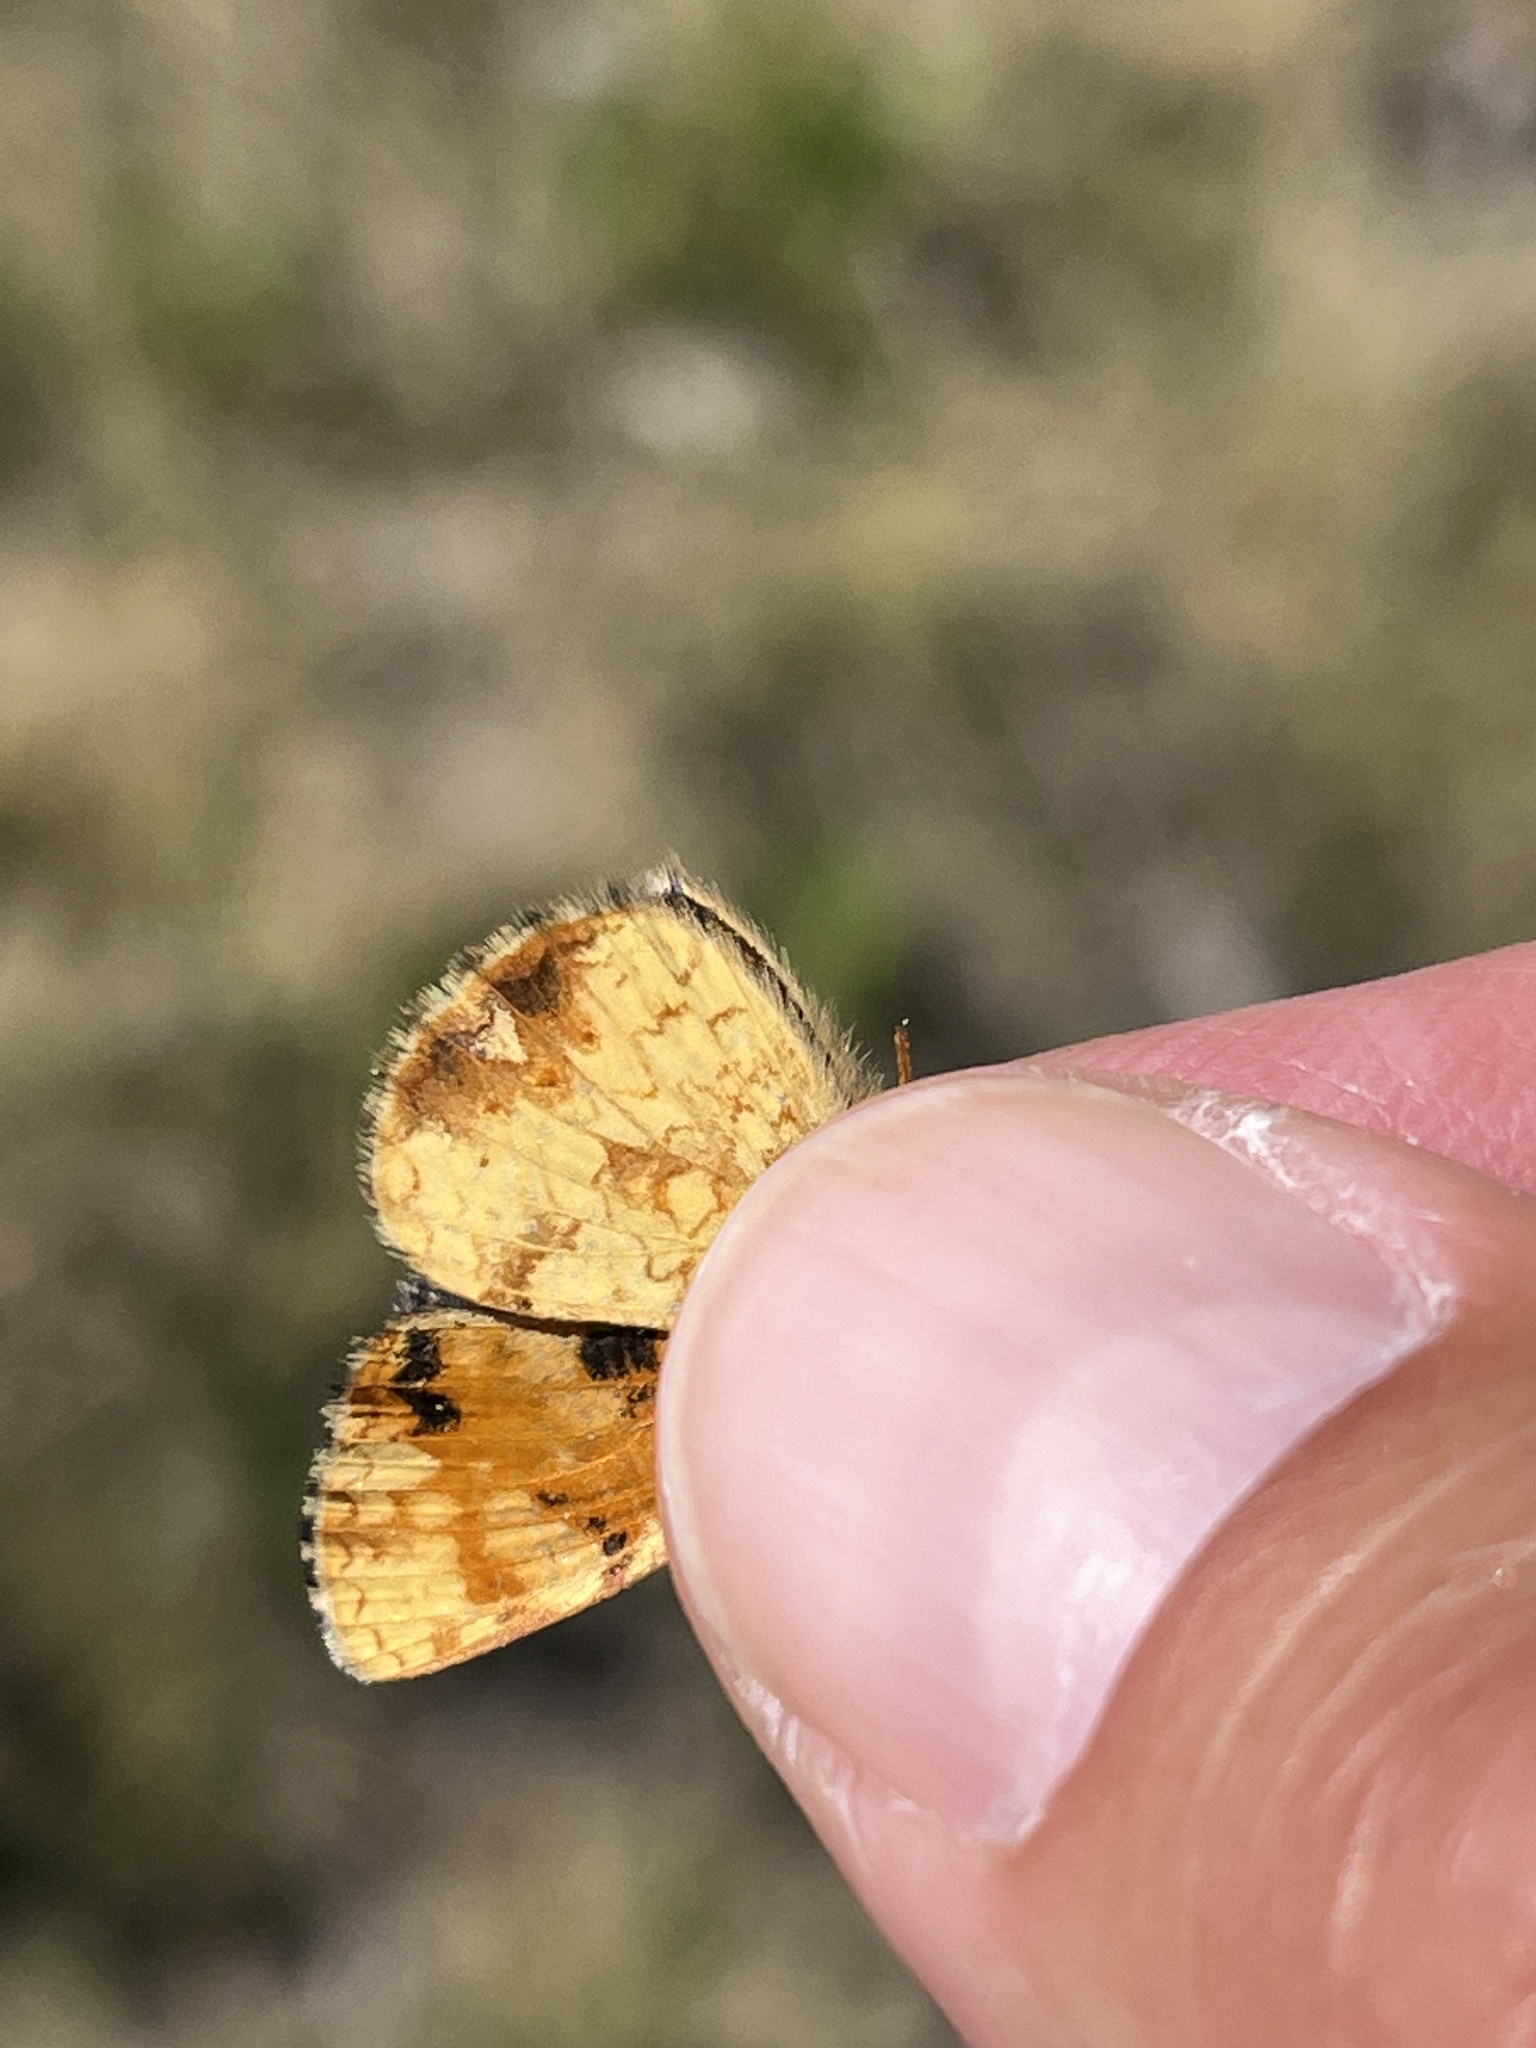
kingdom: Animalia
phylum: Arthropoda
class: Insecta
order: Lepidoptera
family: Nymphalidae
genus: Phyciodes
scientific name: Phyciodes tharos
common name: Pearl crescent
